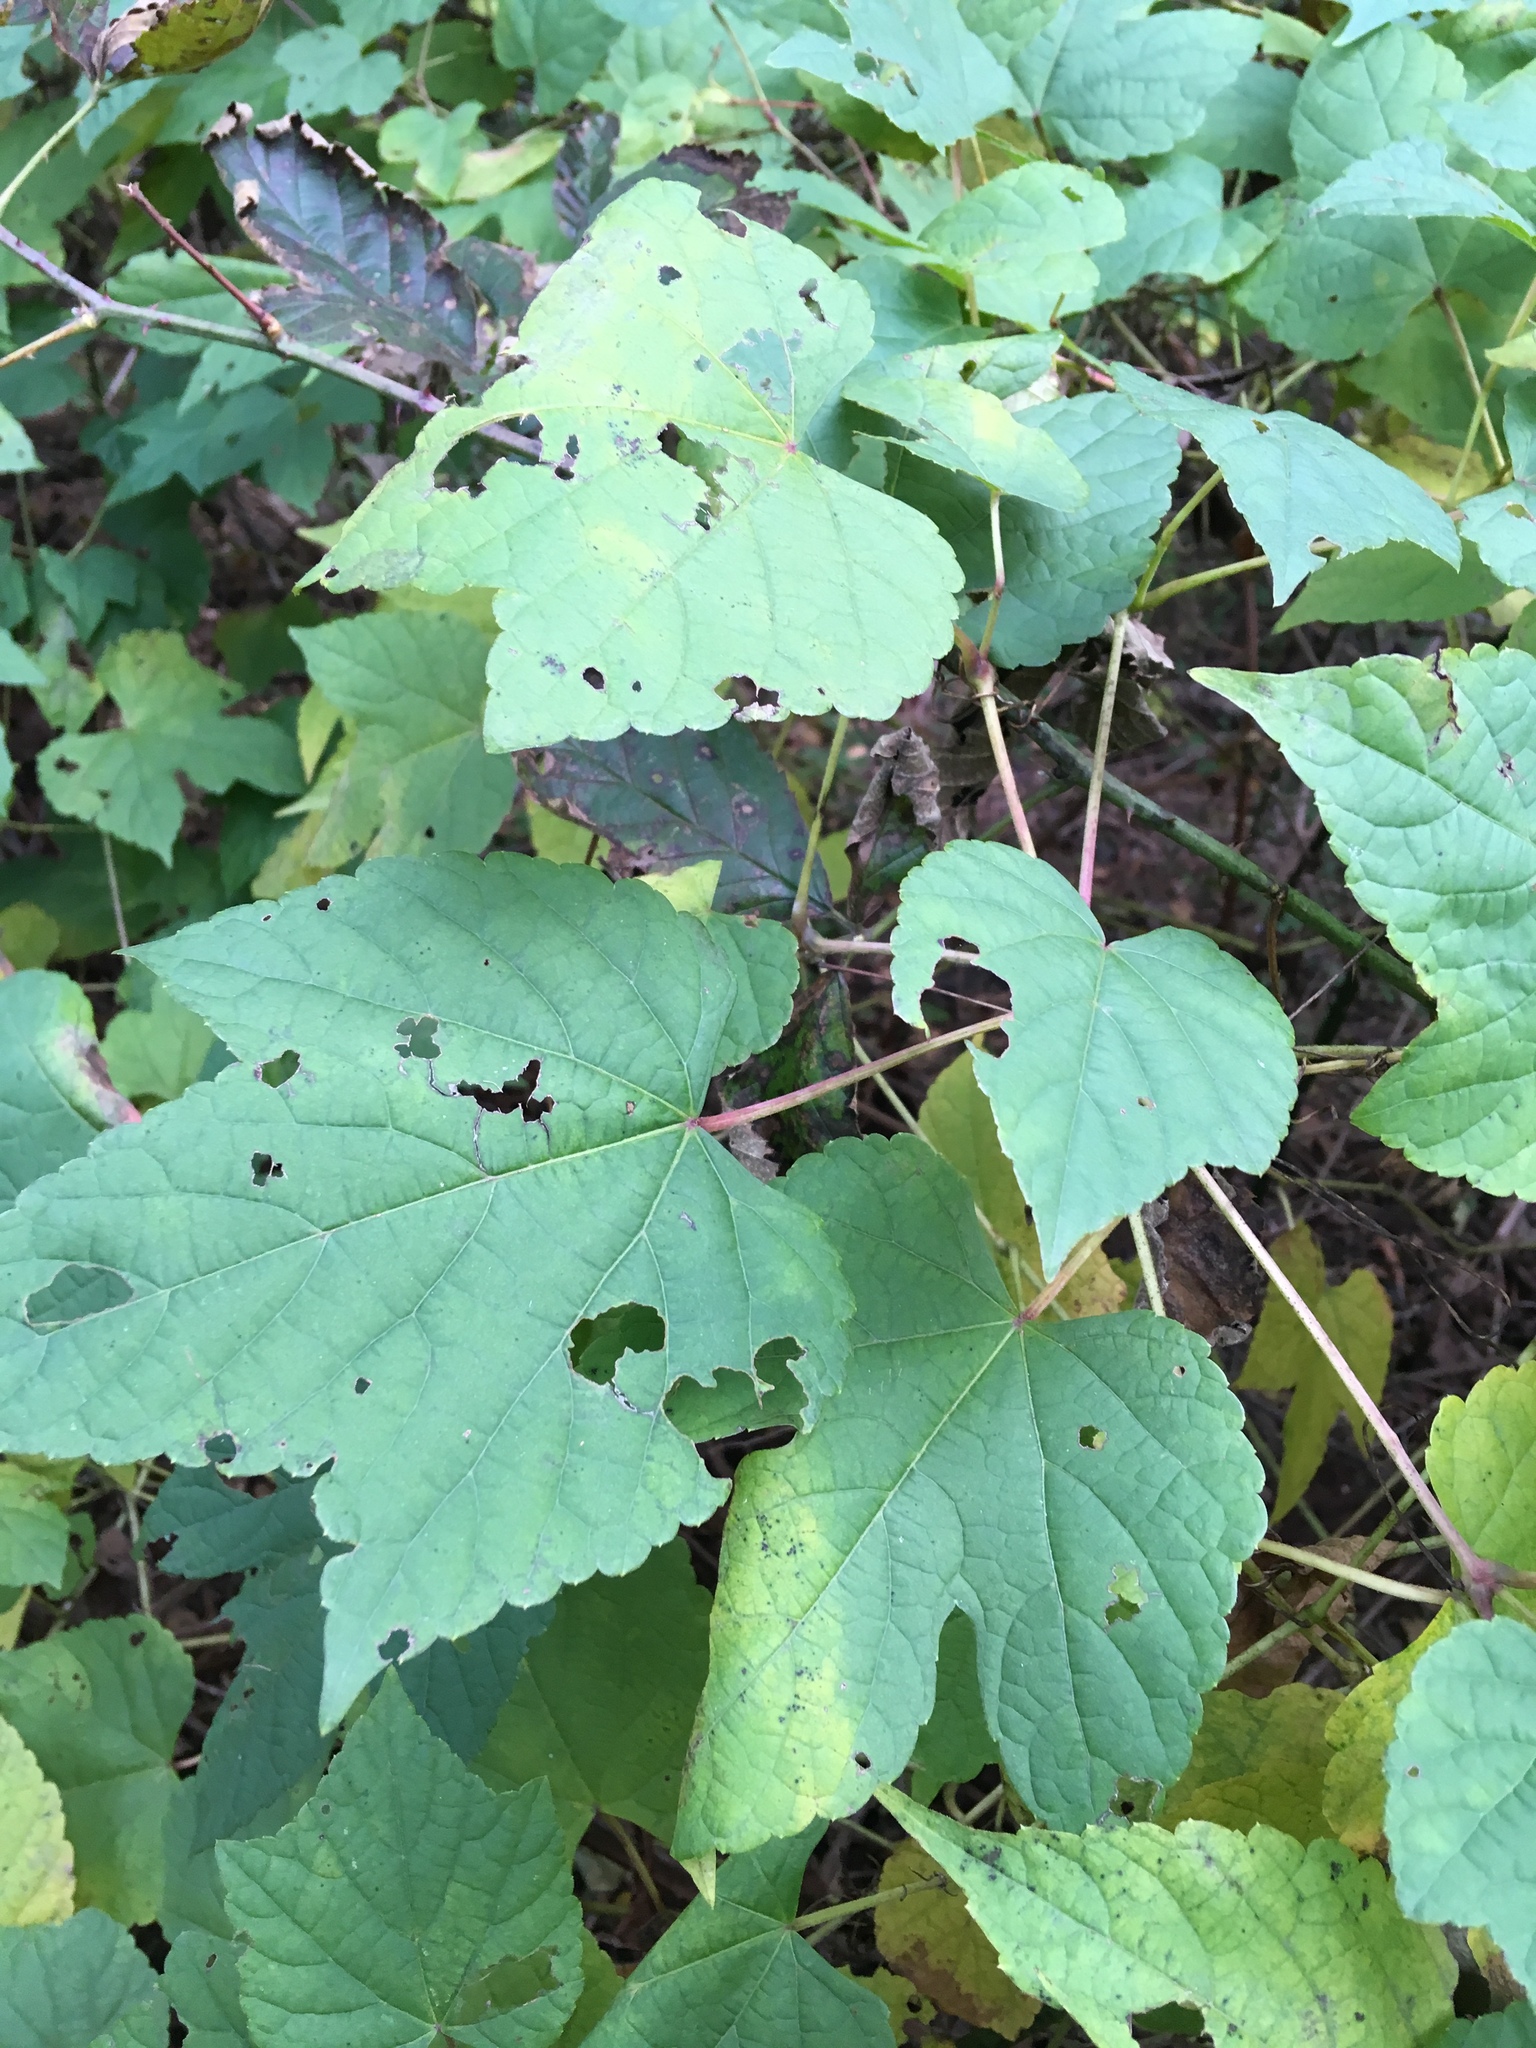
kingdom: Plantae
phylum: Tracheophyta
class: Magnoliopsida
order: Vitales
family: Vitaceae
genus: Ampelopsis
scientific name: Ampelopsis glandulosa
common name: Amur peppervine
